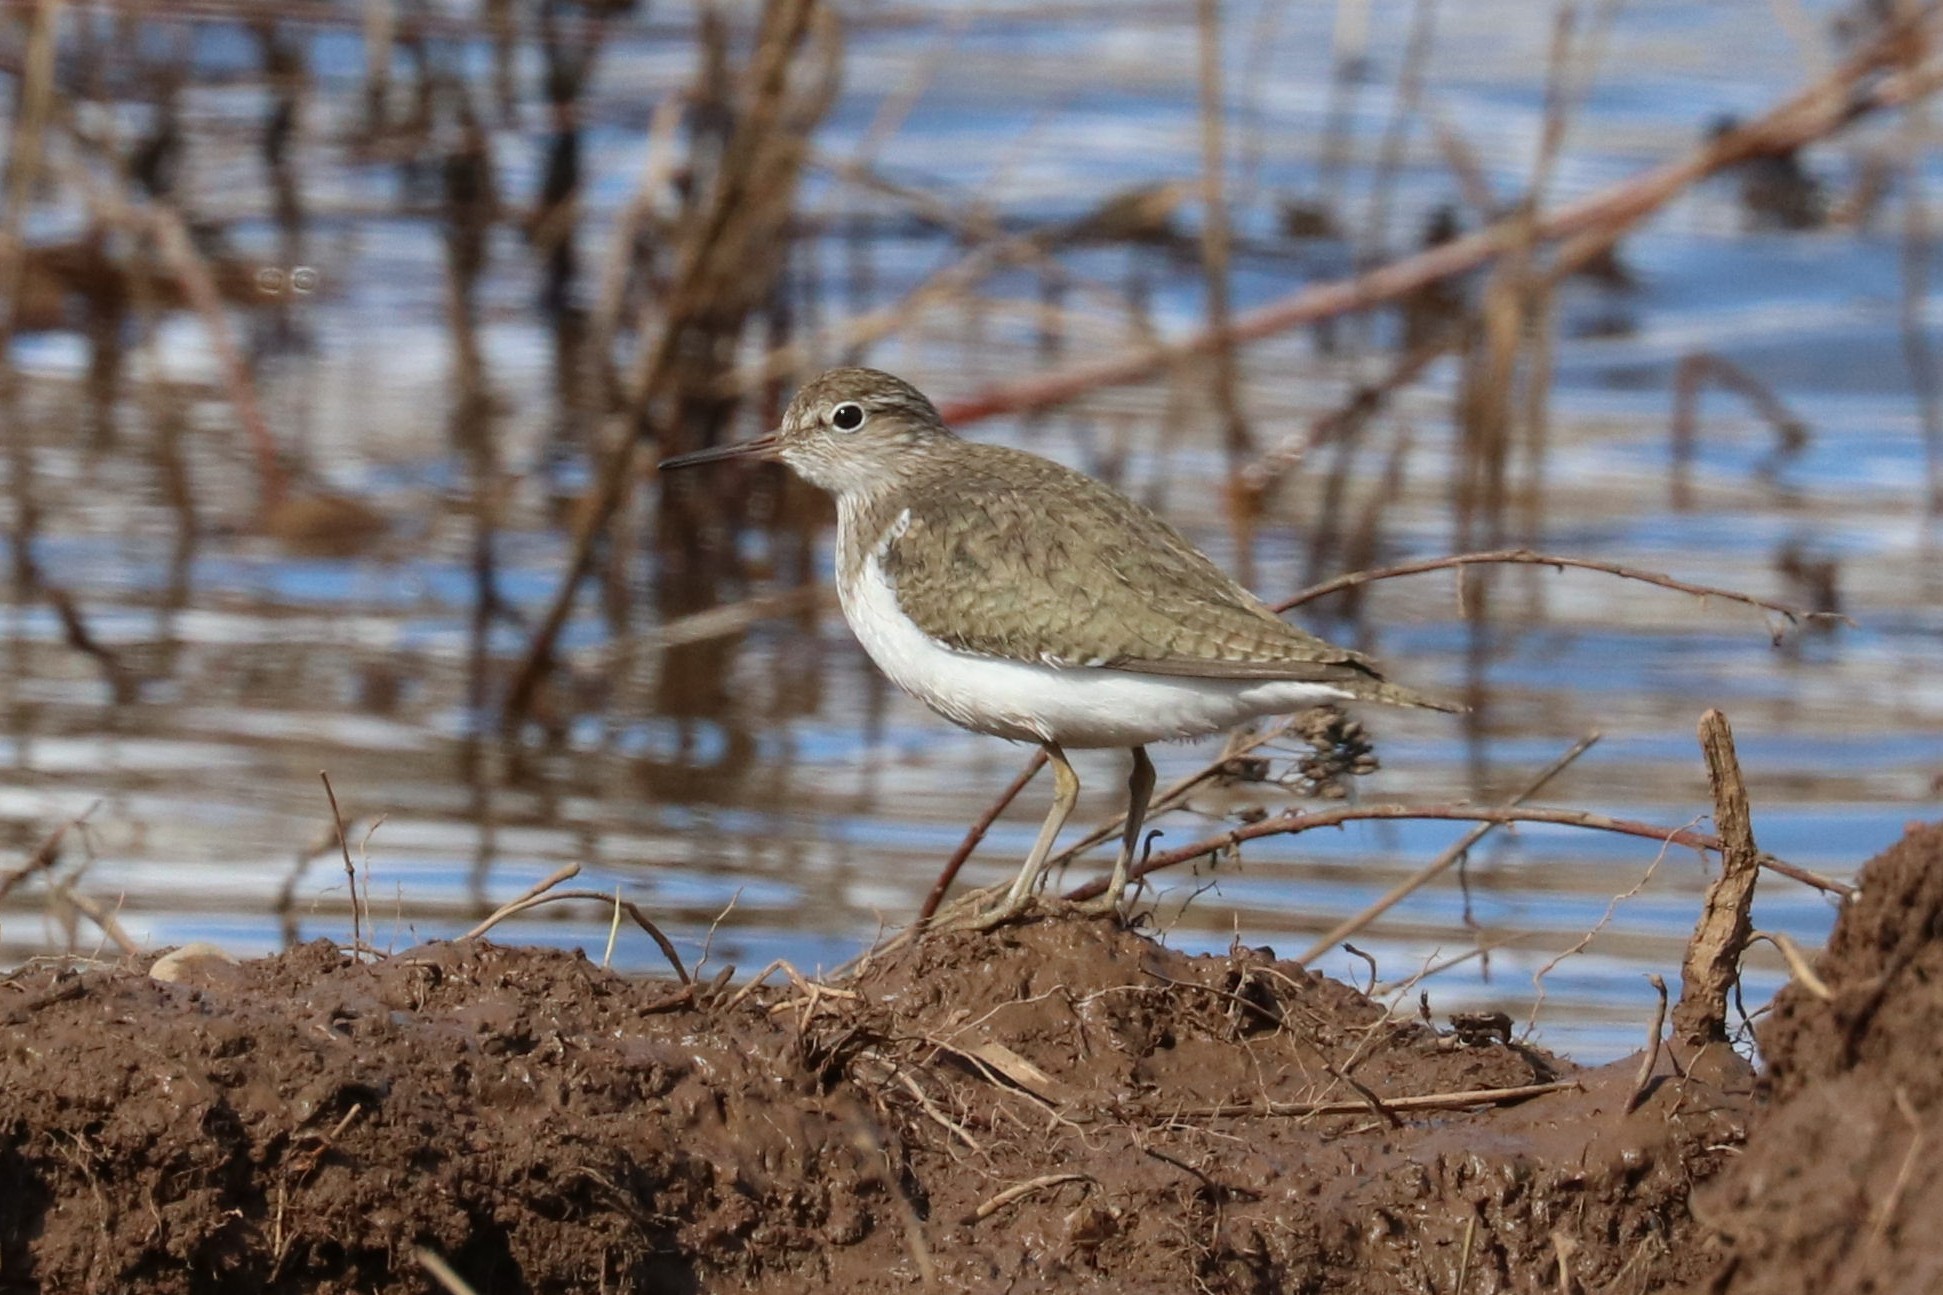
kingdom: Animalia
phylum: Chordata
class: Aves
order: Charadriiformes
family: Scolopacidae
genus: Actitis
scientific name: Actitis hypoleucos
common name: Common sandpiper
